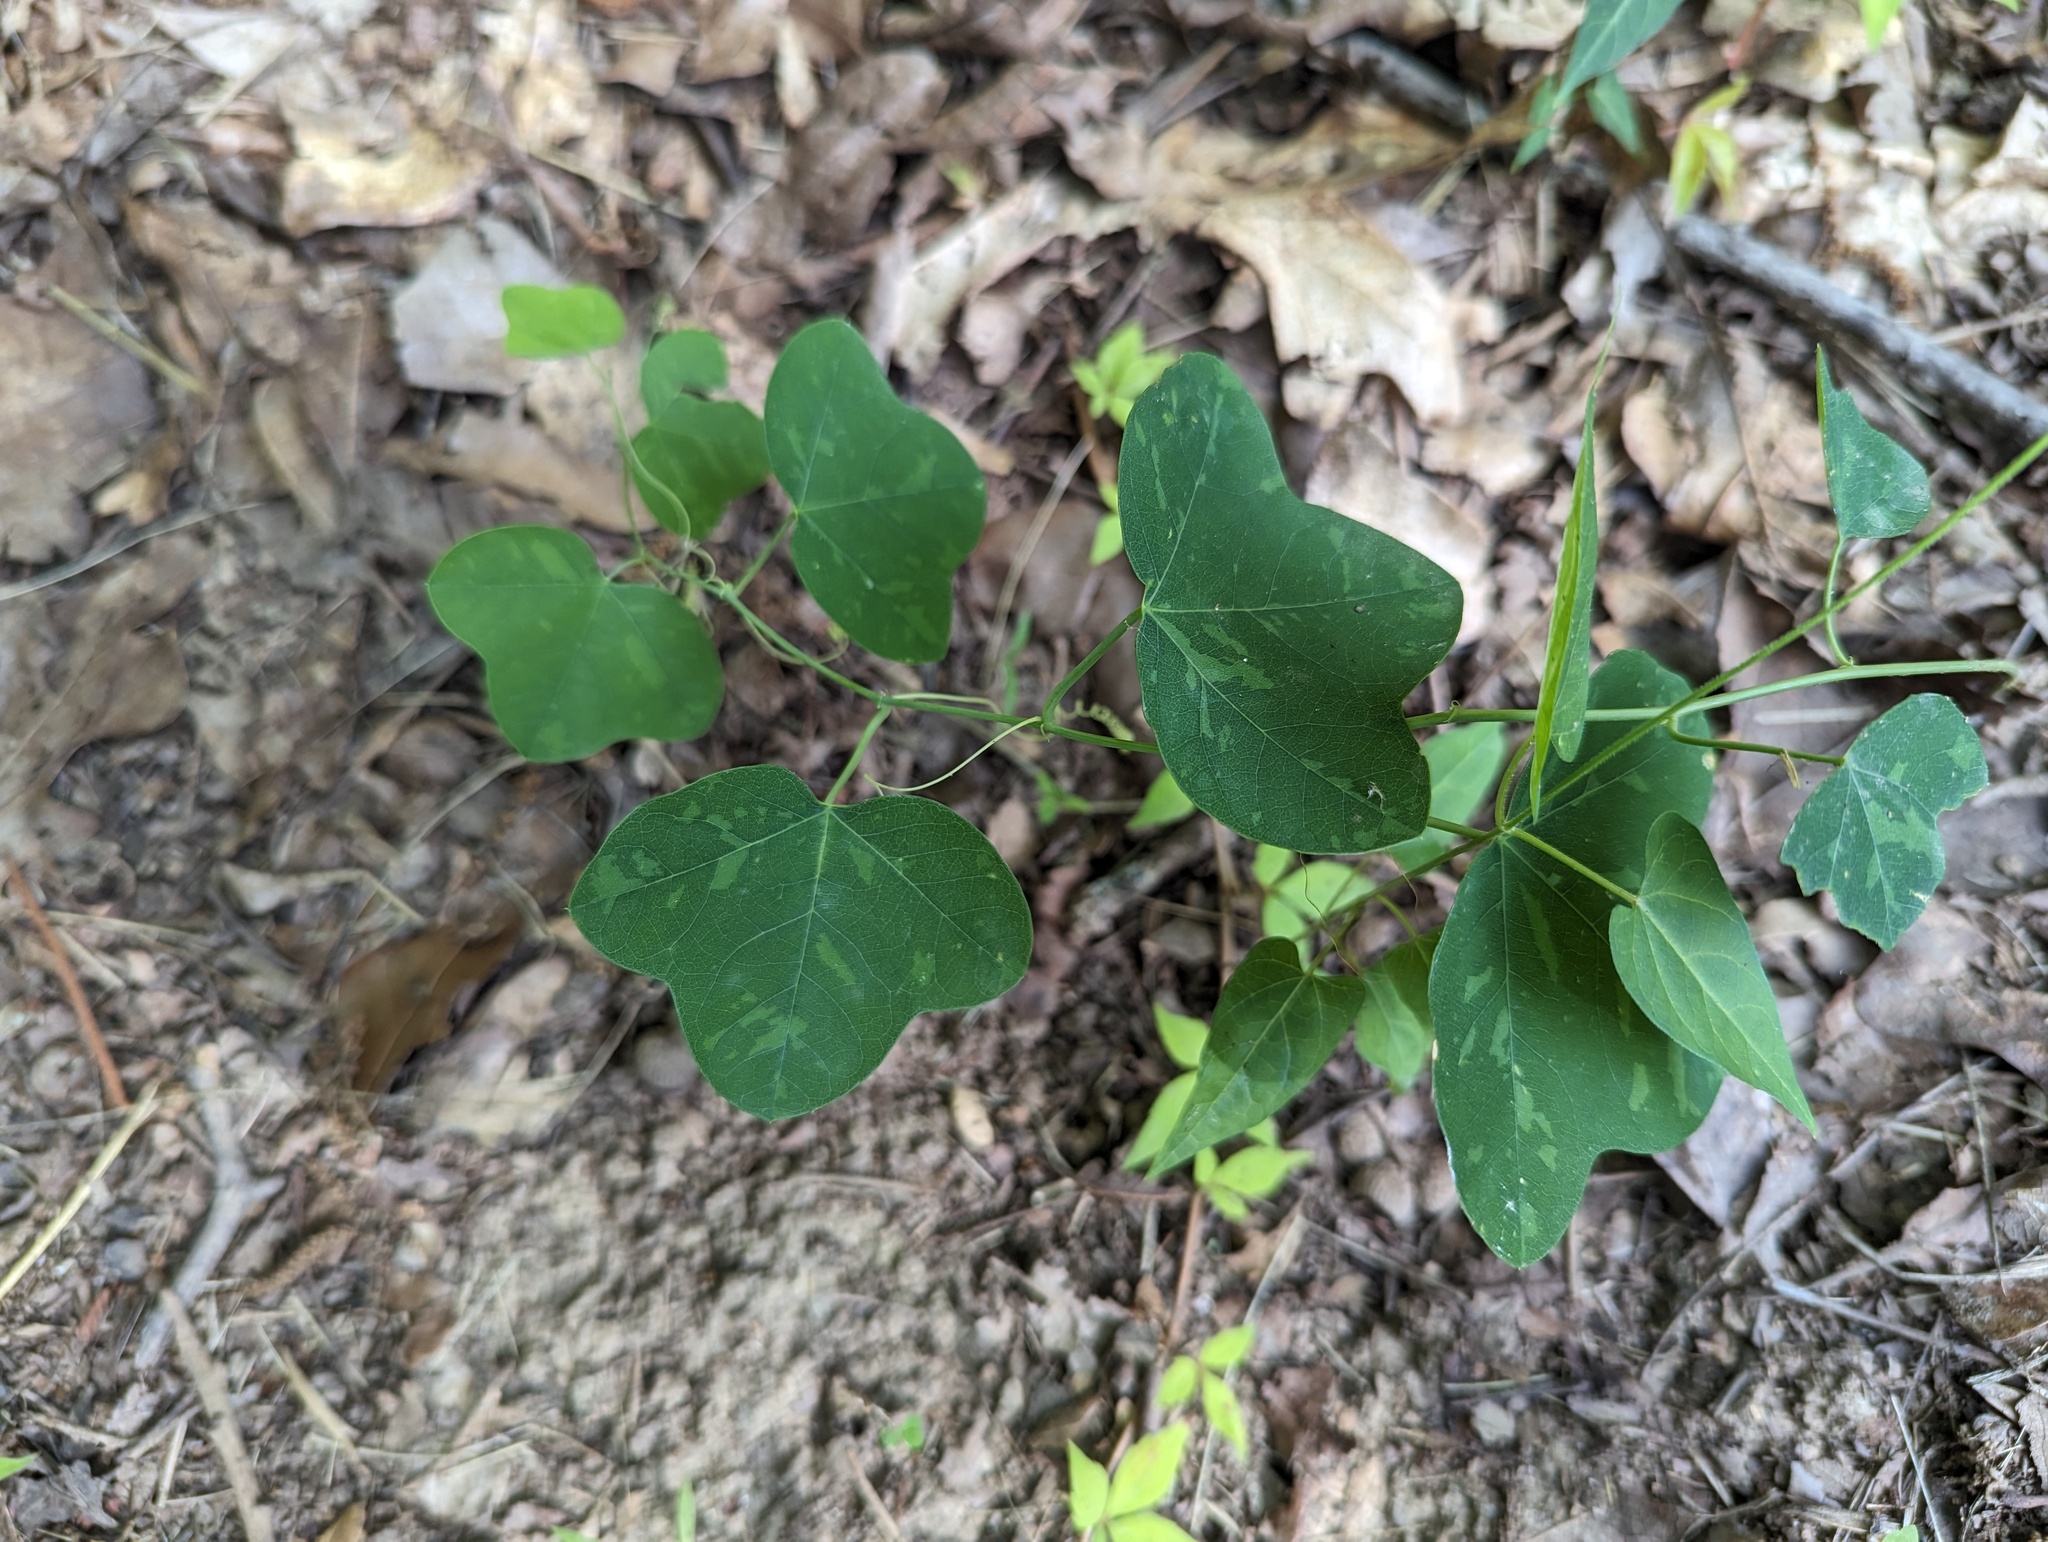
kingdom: Plantae
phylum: Tracheophyta
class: Magnoliopsida
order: Malpighiales
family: Passifloraceae
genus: Passiflora
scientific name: Passiflora lutea
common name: Yellow passionflower
